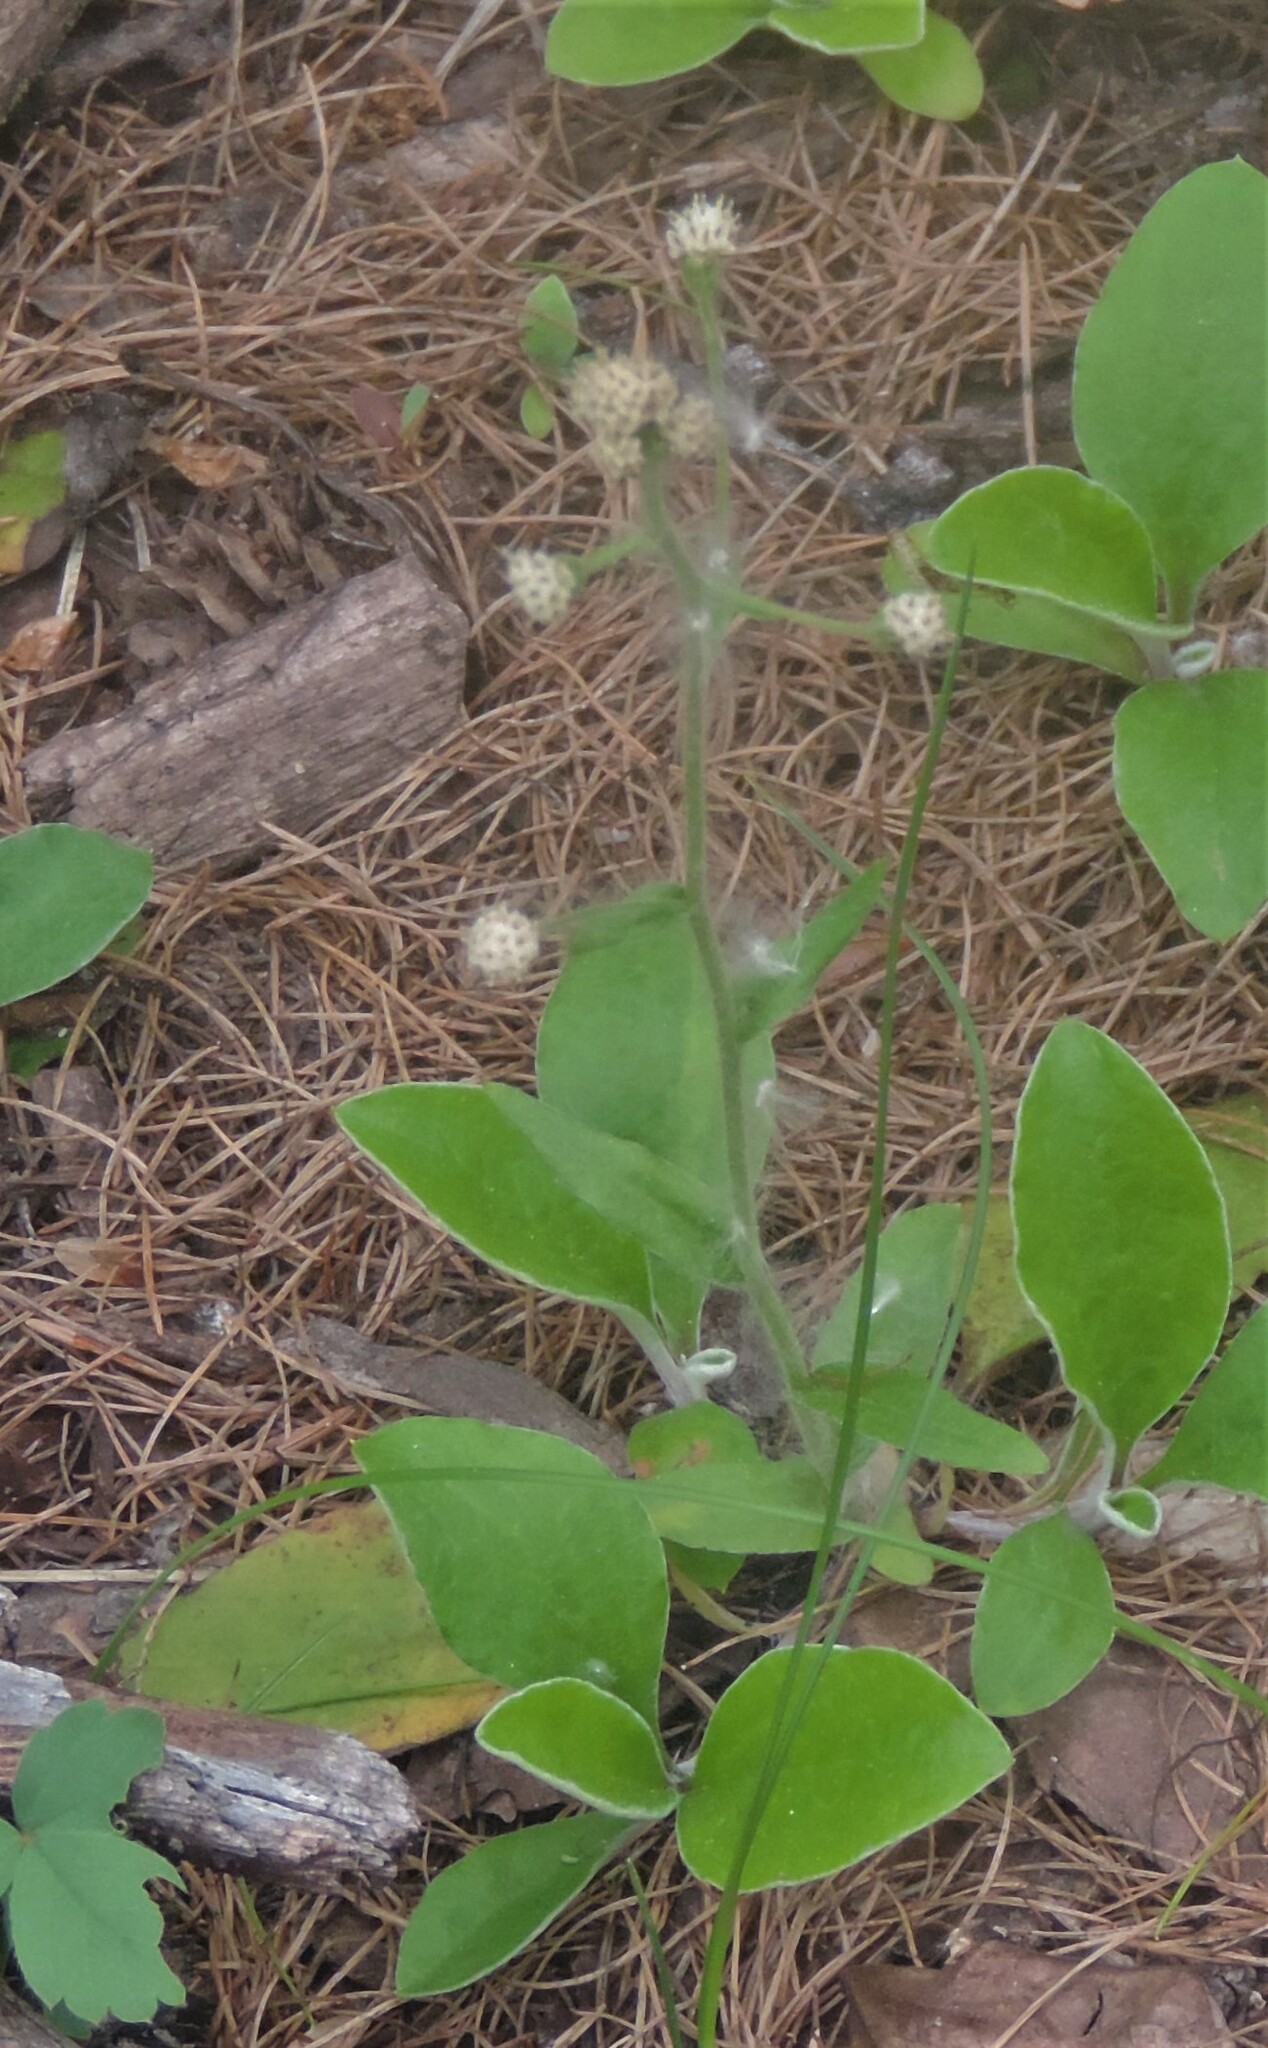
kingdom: Plantae
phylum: Tracheophyta
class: Magnoliopsida
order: Asterales
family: Asteraceae
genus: Antennaria
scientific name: Antennaria racemosa
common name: Racemose pussytoes
